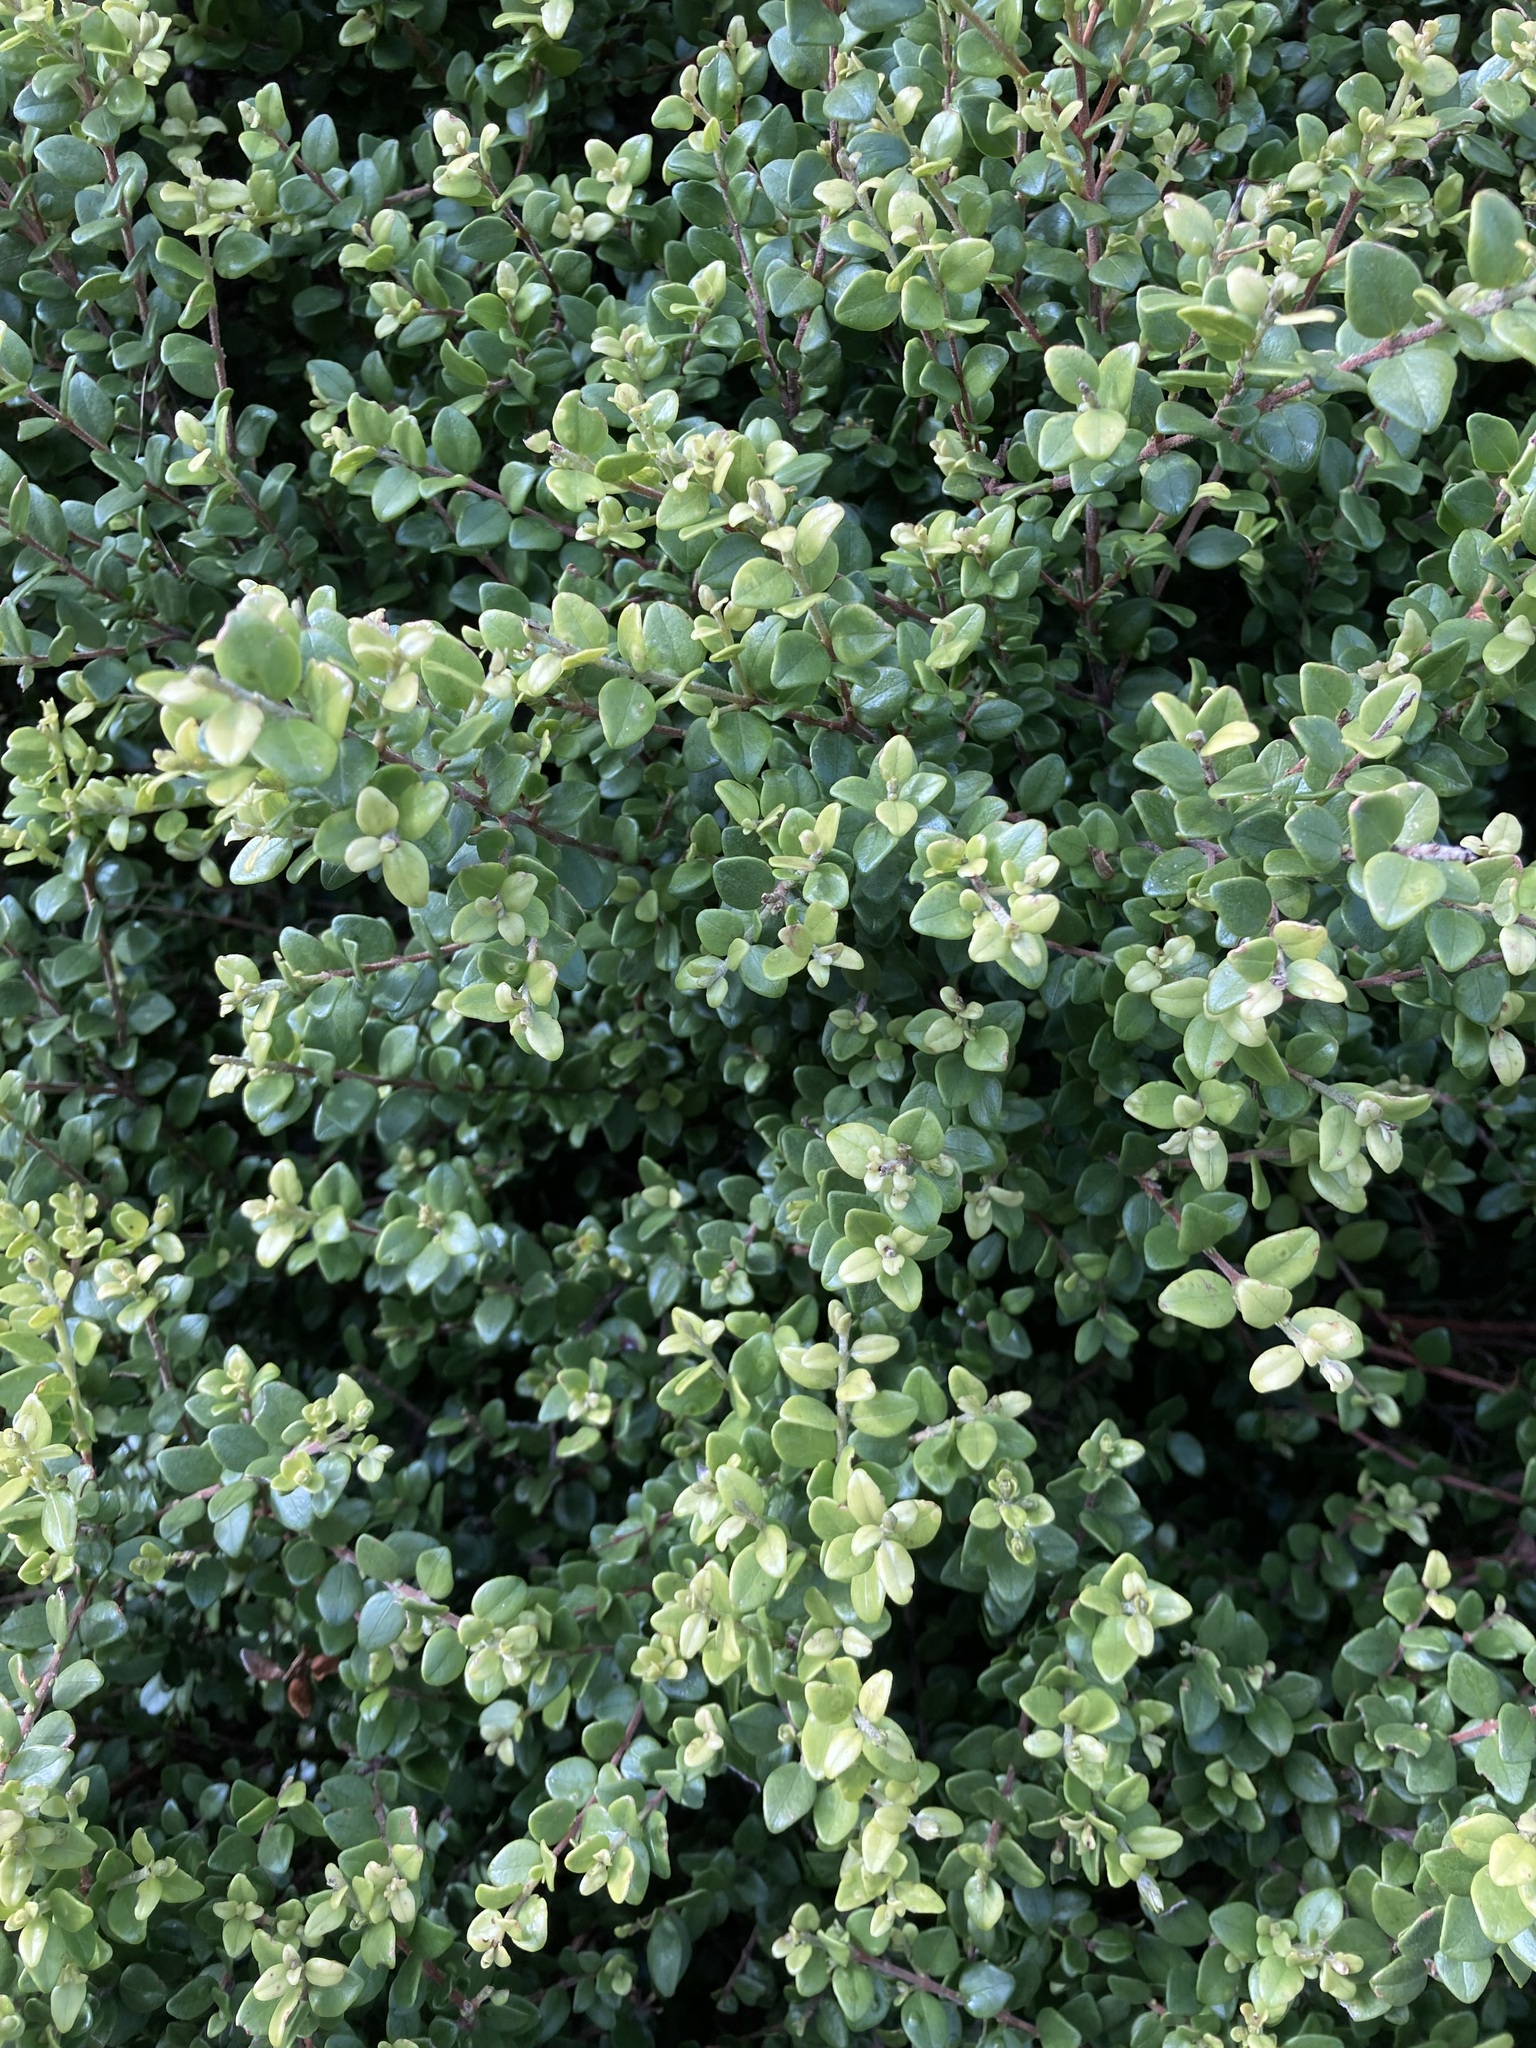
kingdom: Plantae
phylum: Tracheophyta
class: Magnoliopsida
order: Myrtales
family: Myrtaceae
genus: Metrosideros
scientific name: Metrosideros perforata
